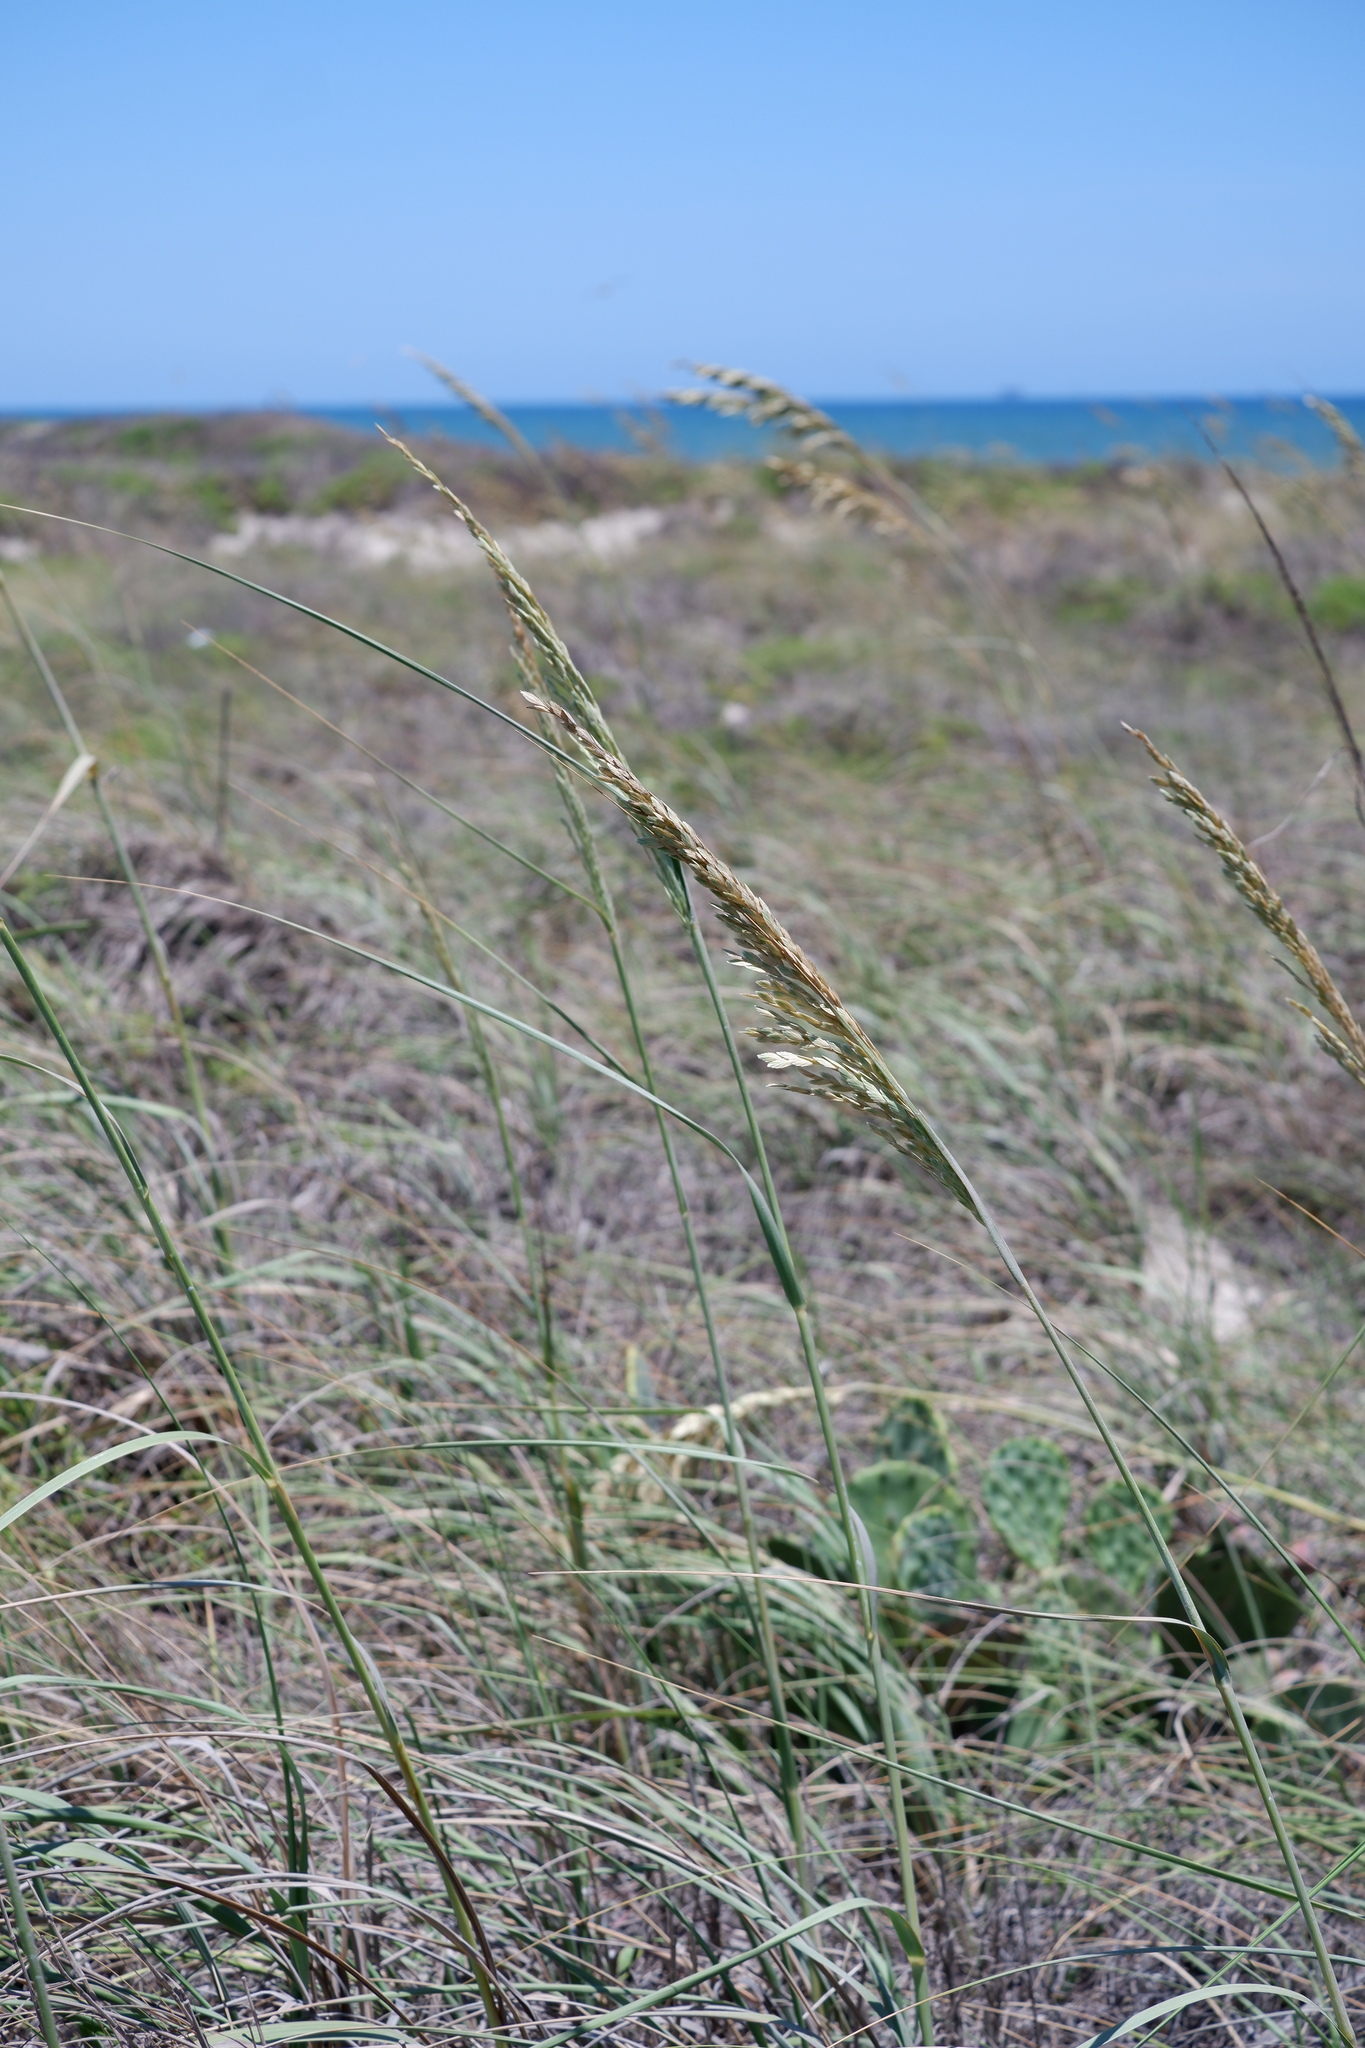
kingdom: Plantae
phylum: Tracheophyta
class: Liliopsida
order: Poales
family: Poaceae
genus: Uniola
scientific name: Uniola paniculata
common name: Seaside-oats
